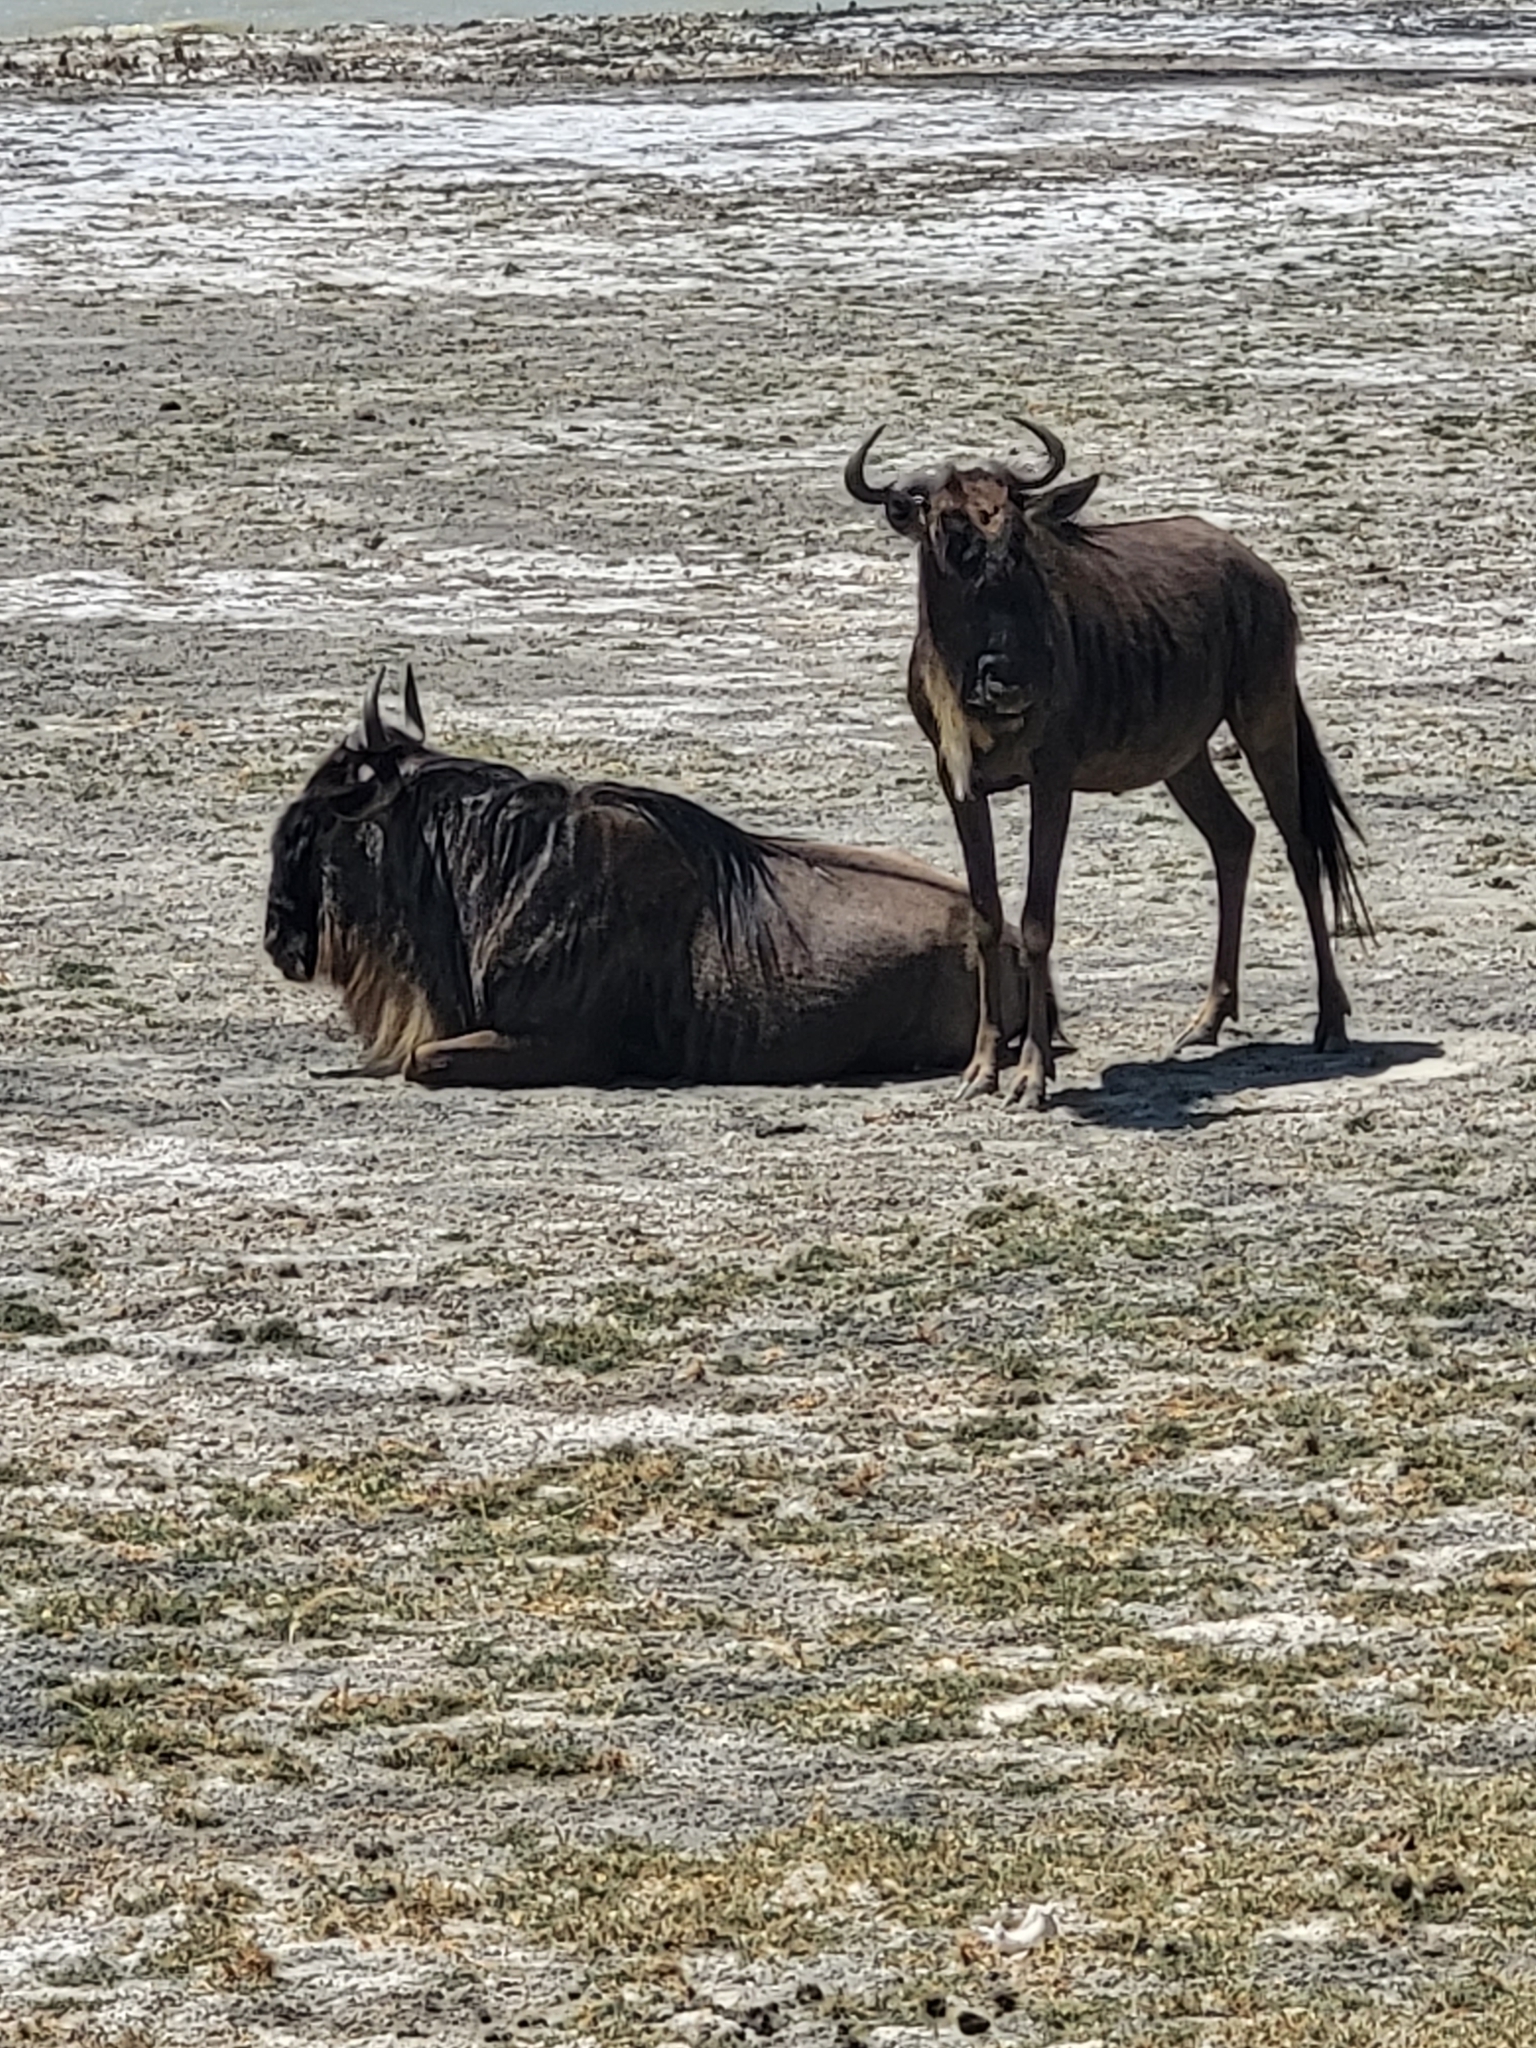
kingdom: Animalia
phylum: Chordata
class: Mammalia
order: Artiodactyla
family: Bovidae
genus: Connochaetes
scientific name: Connochaetes taurinus
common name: Blue wildebeest
